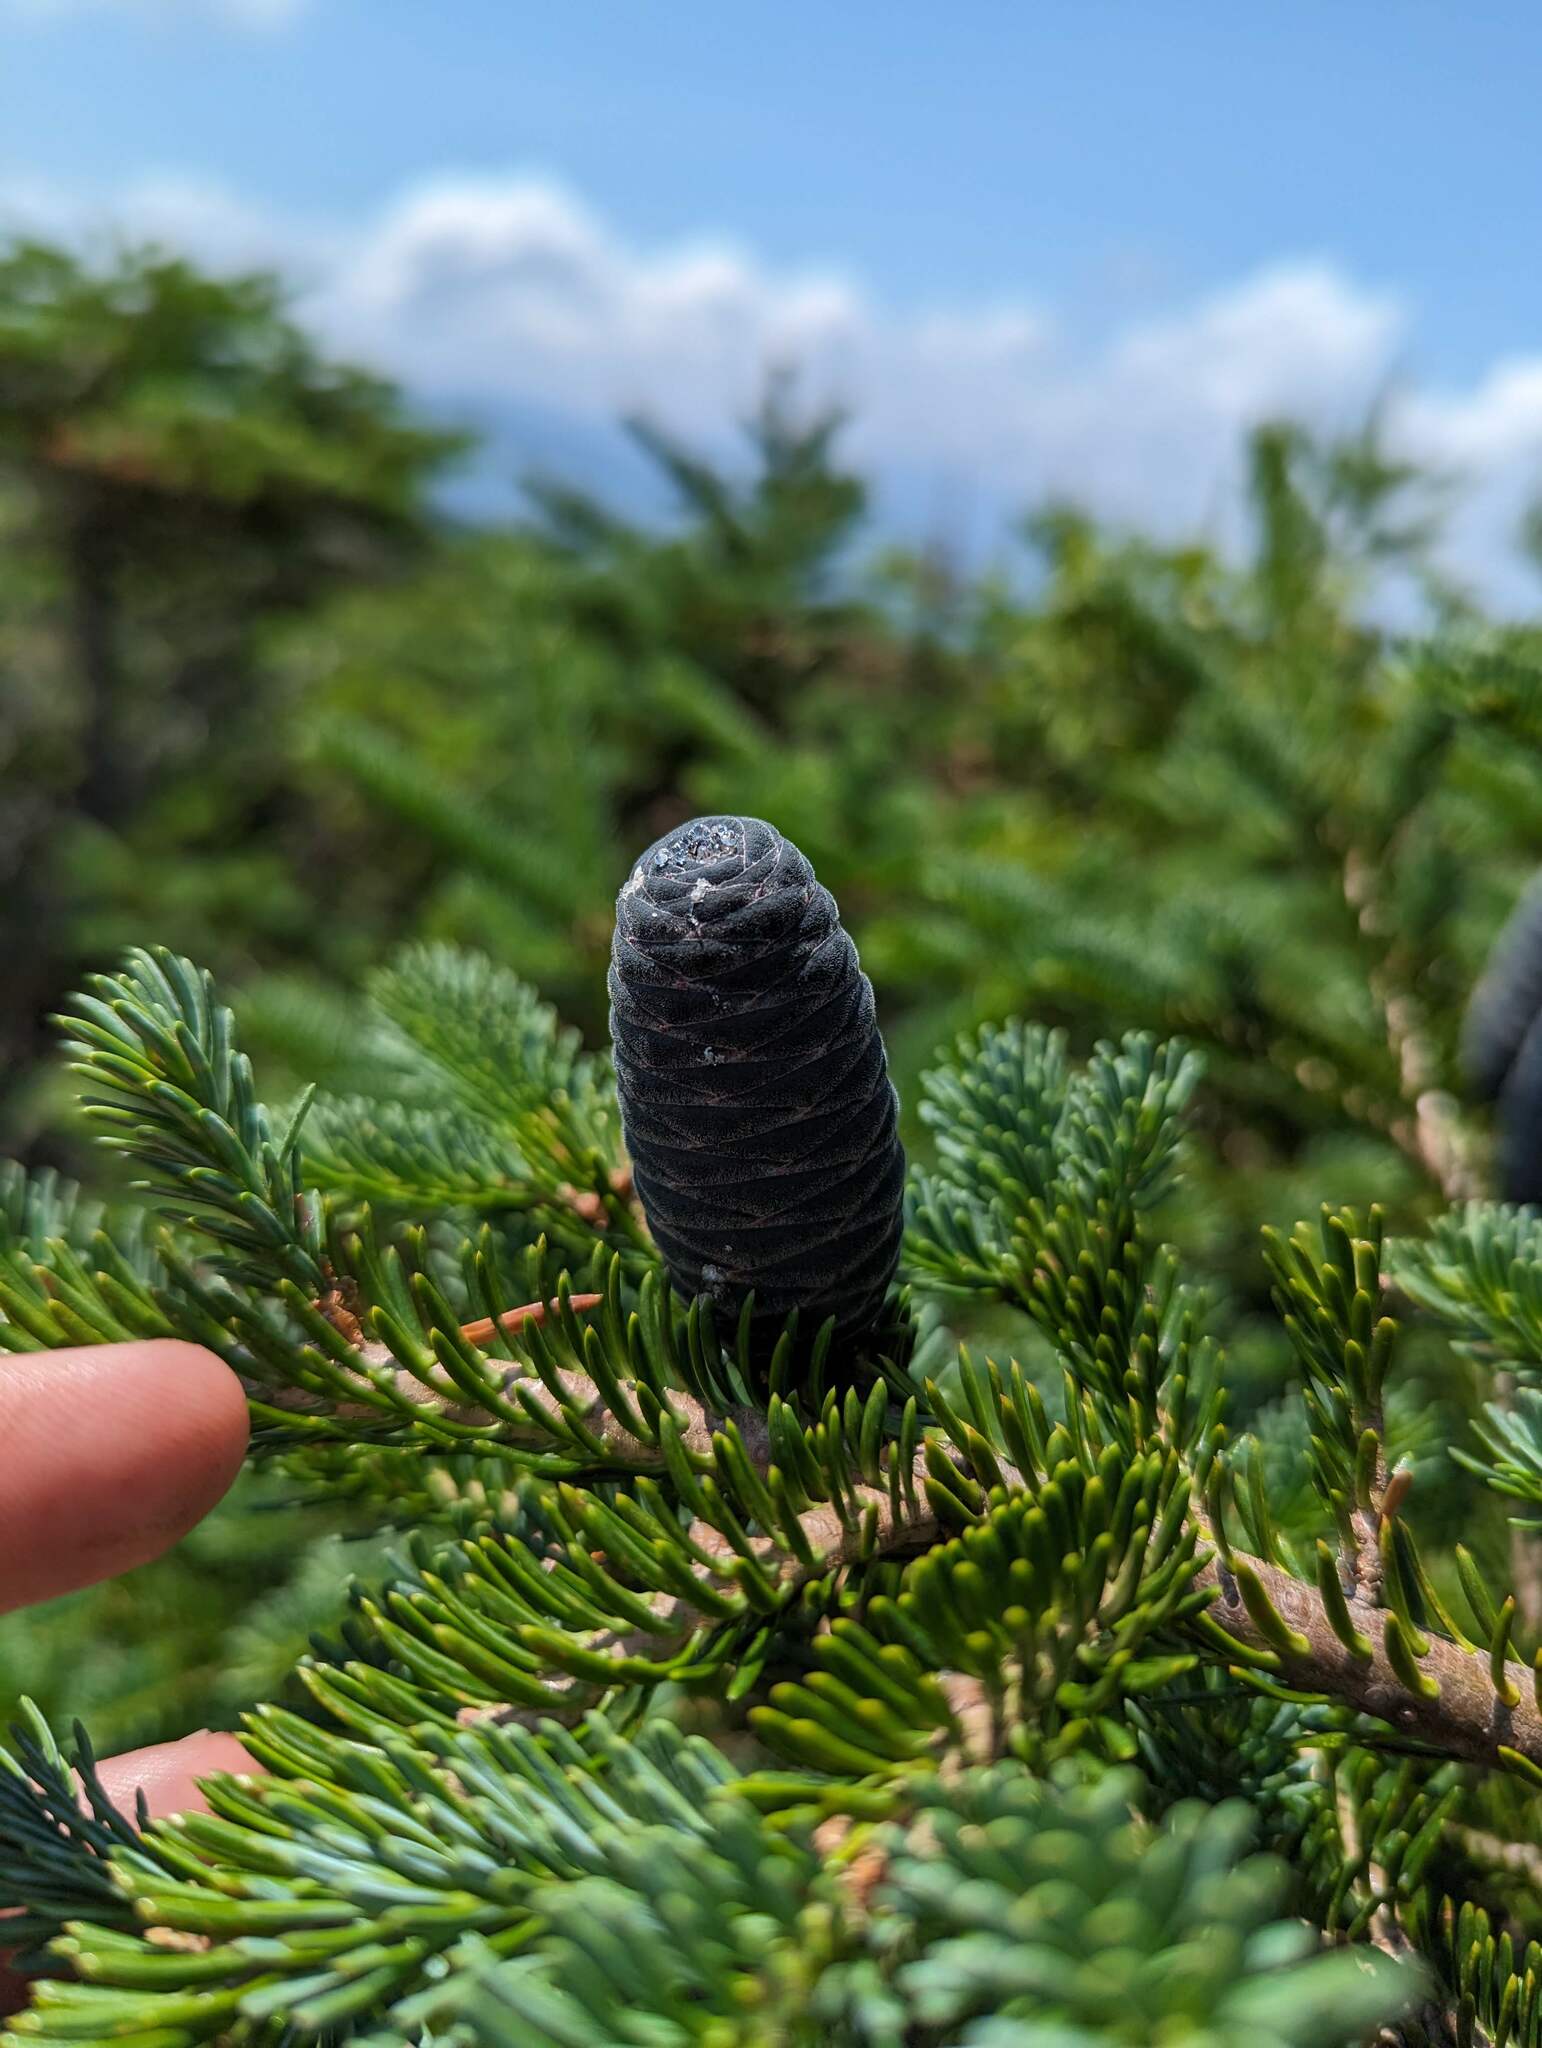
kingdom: Plantae
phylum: Tracheophyta
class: Pinopsida
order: Pinales
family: Pinaceae
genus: Abies
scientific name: Abies balsamea
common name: Balsam fir
